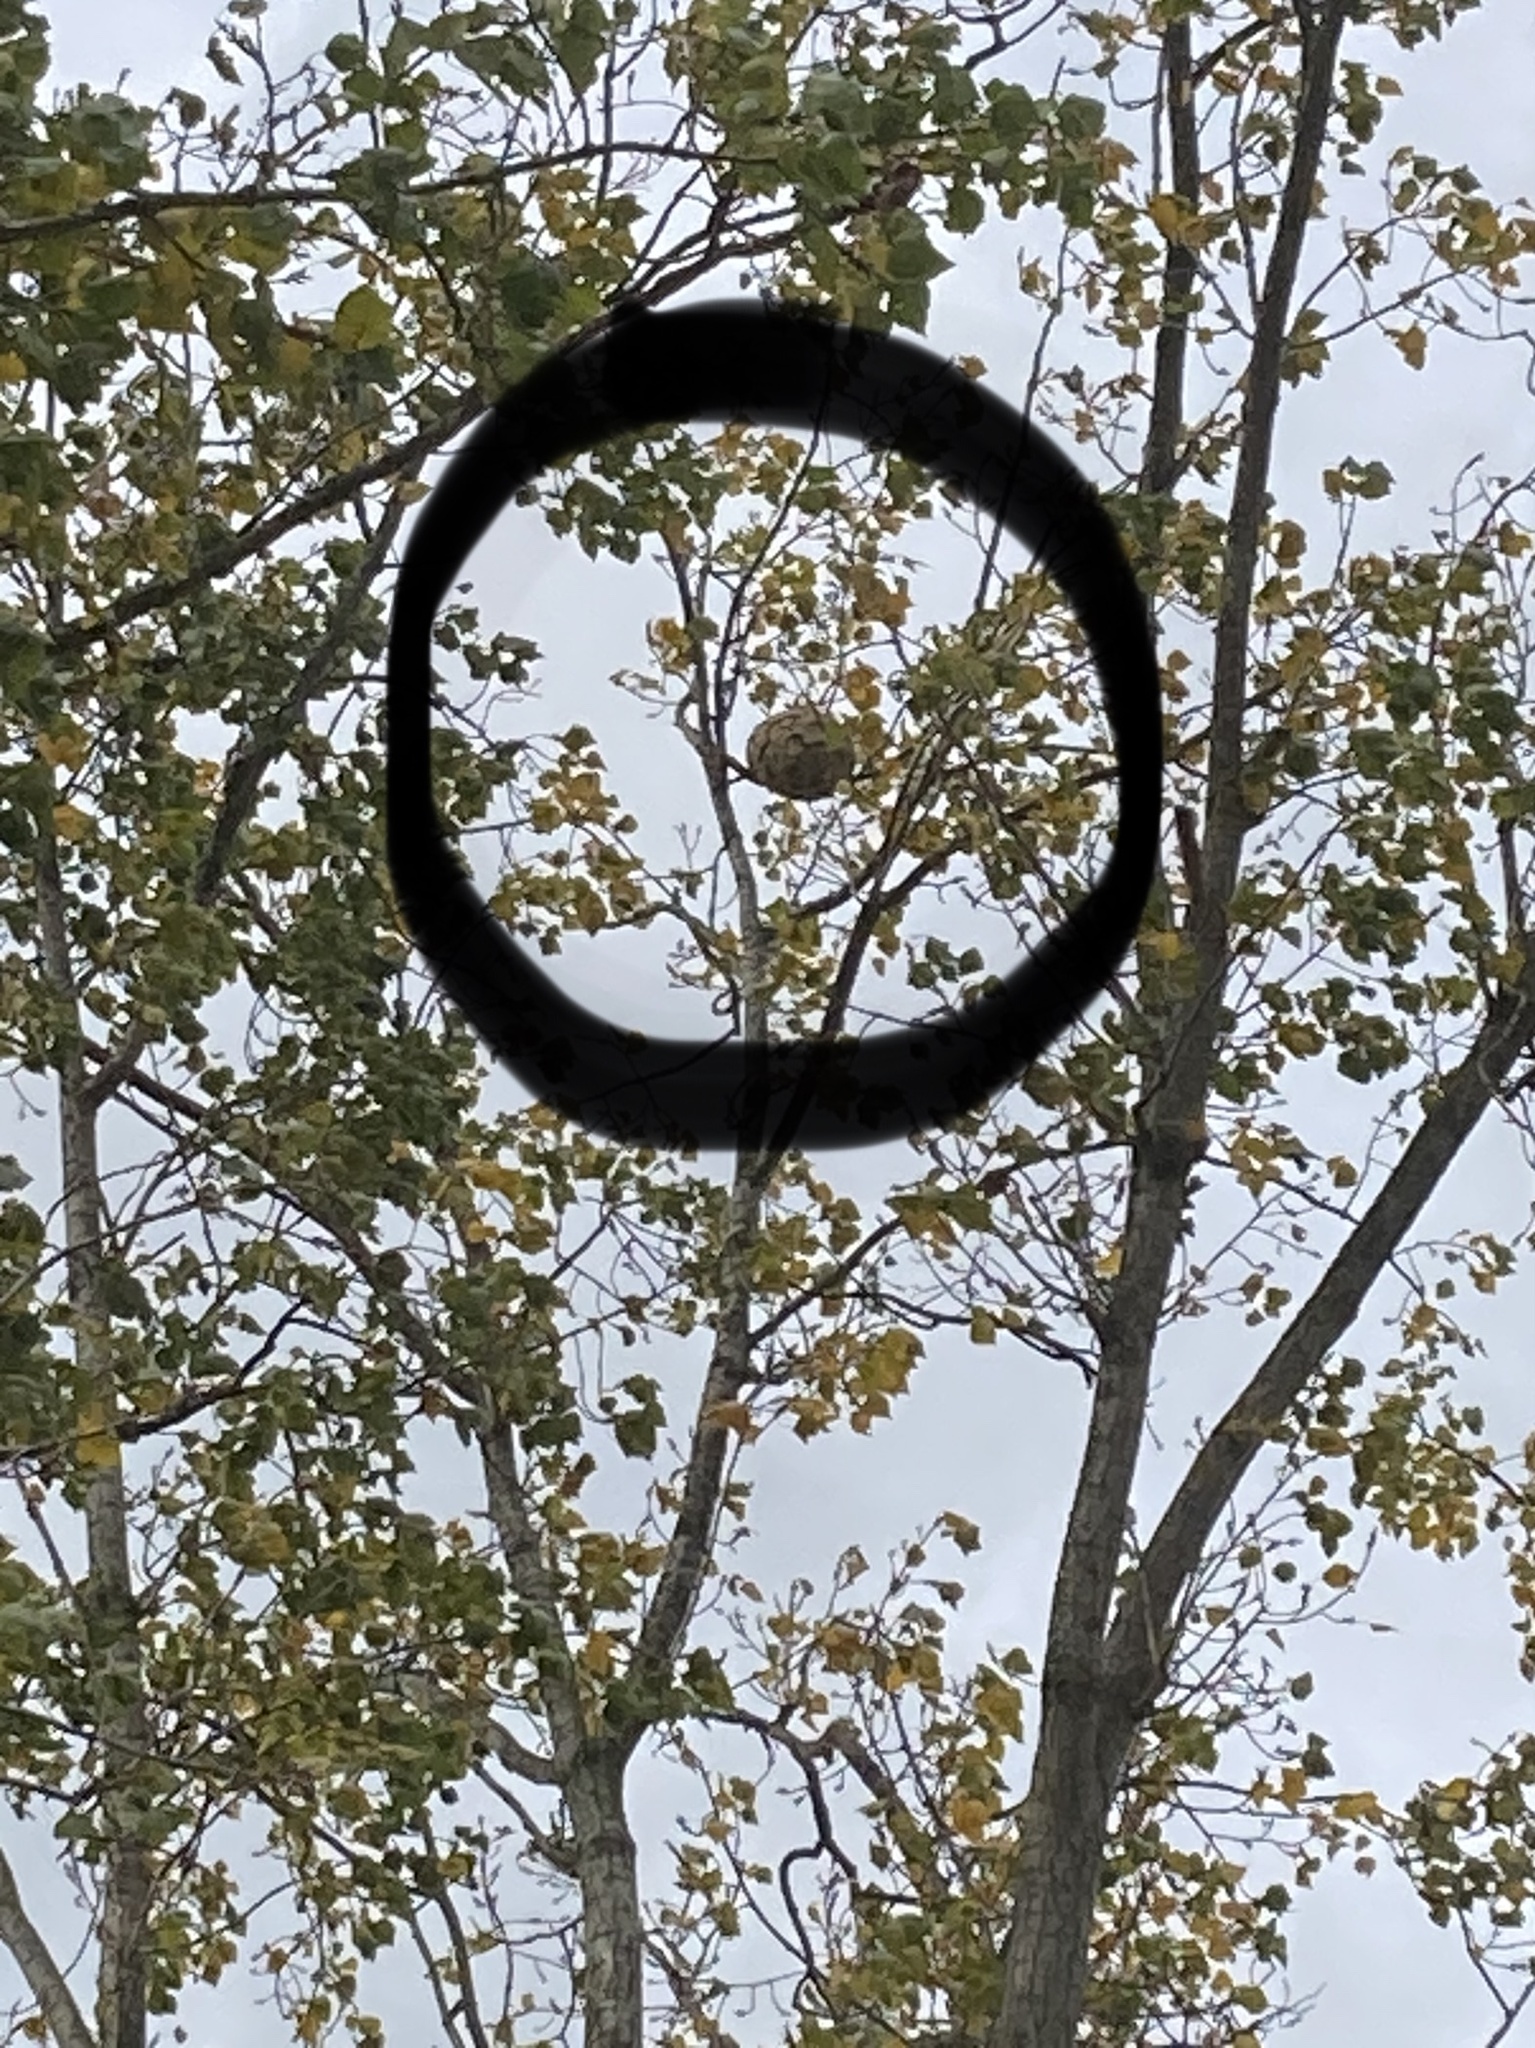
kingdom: Animalia
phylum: Arthropoda
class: Insecta
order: Hymenoptera
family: Vespidae
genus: Vespa
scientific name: Vespa velutina
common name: Asian hornet
